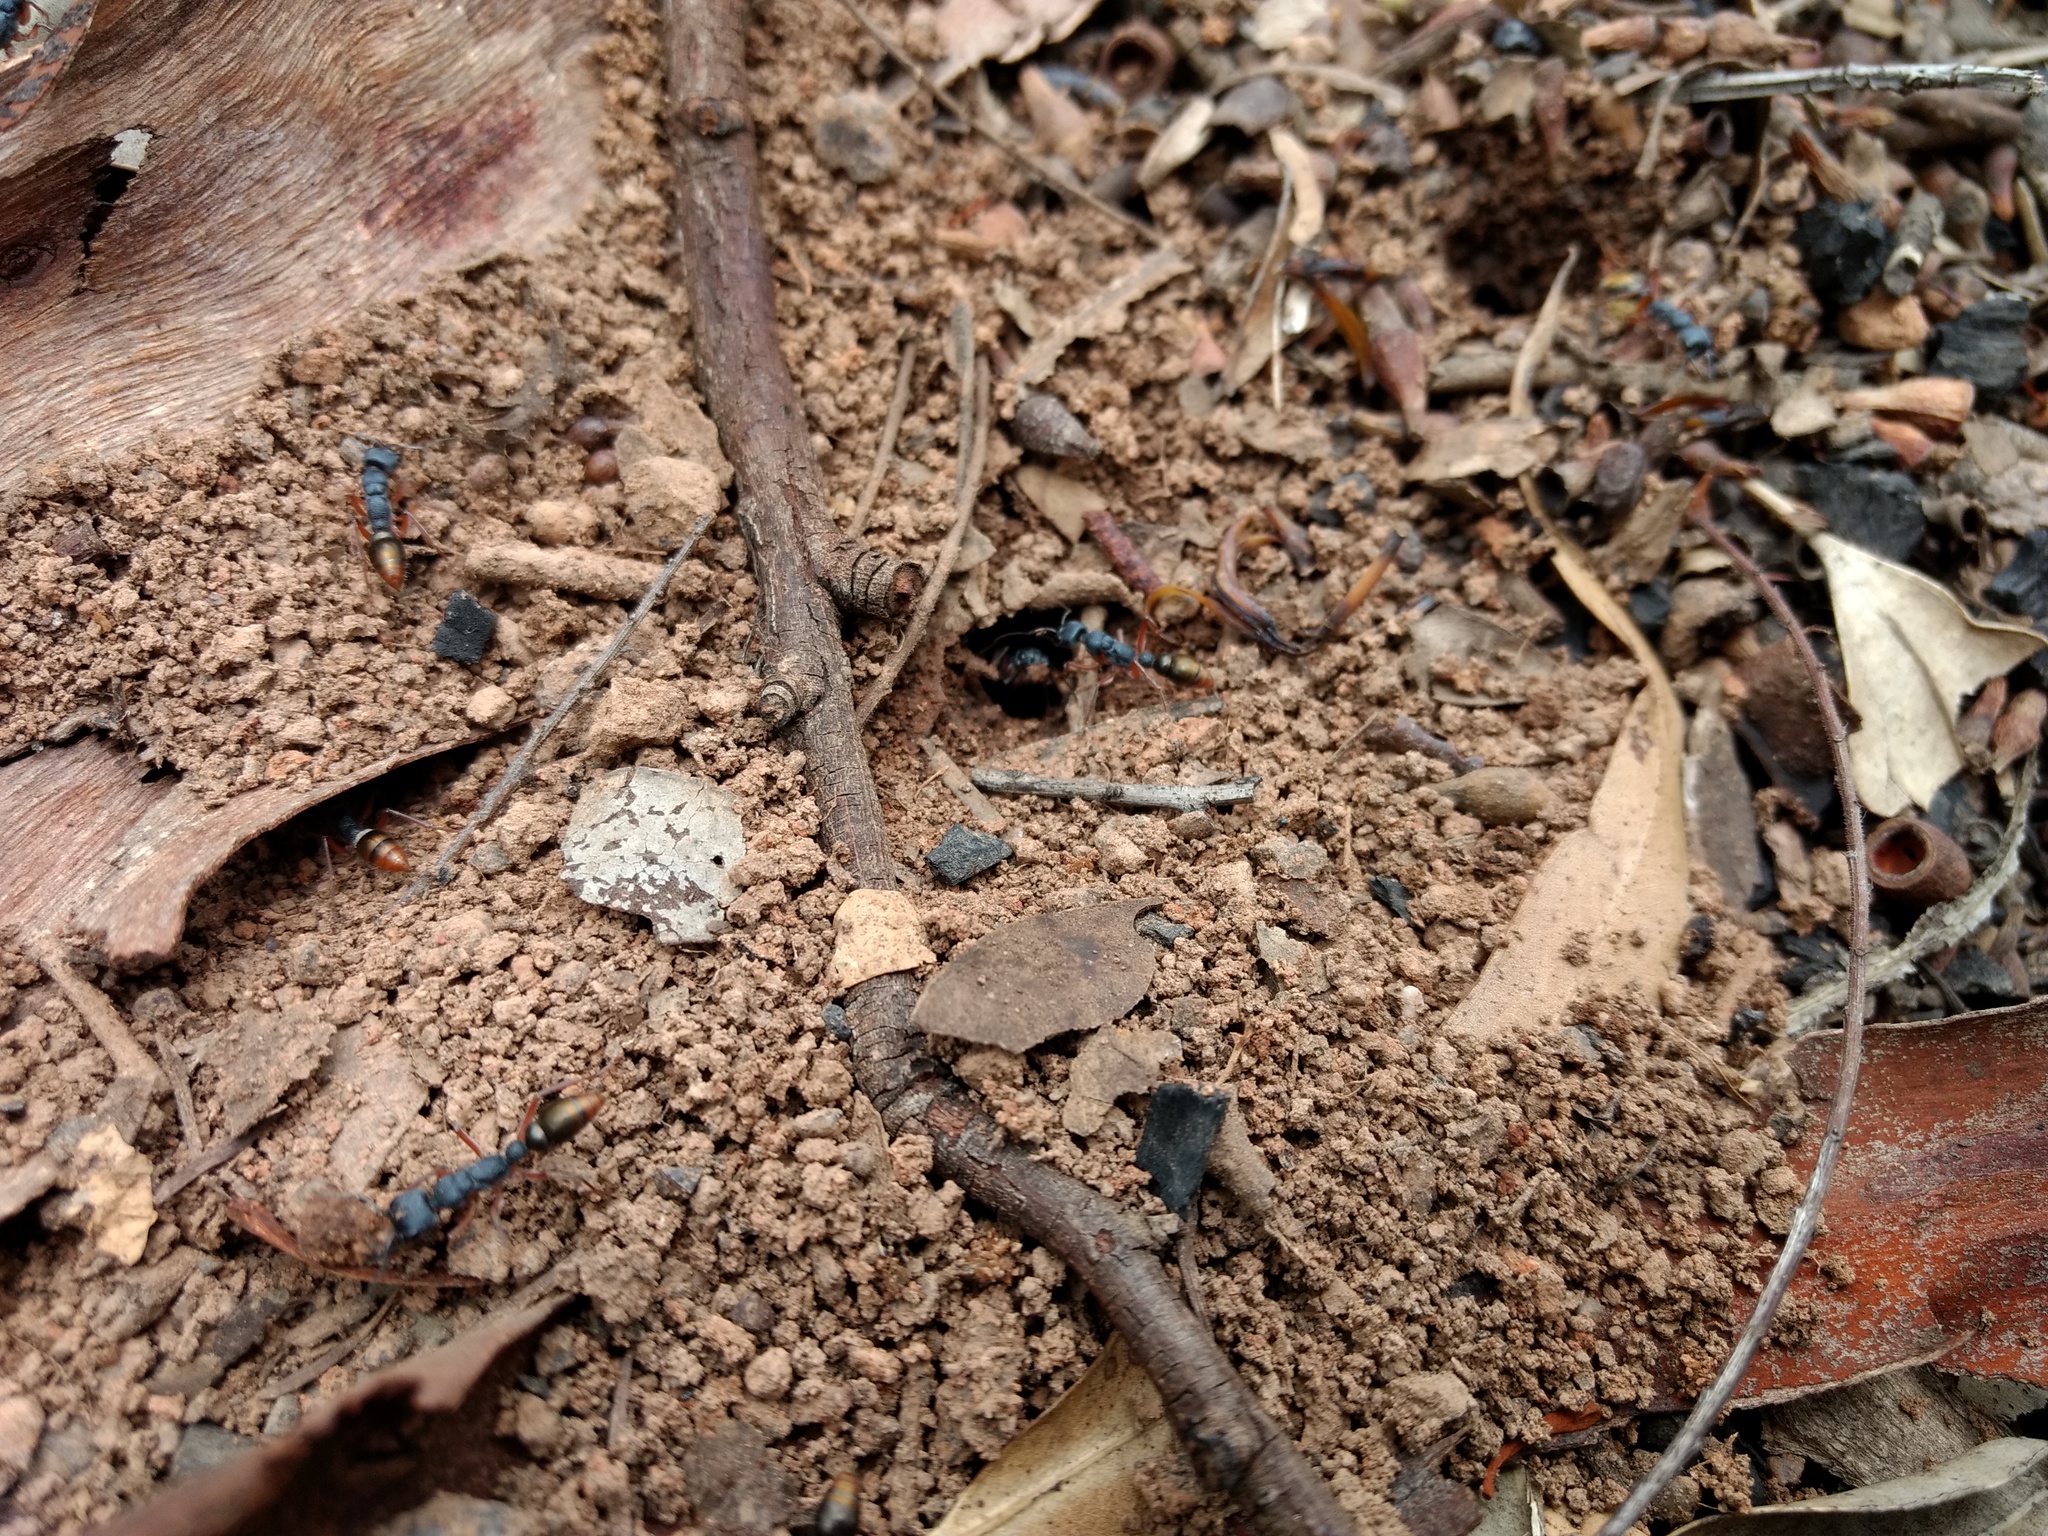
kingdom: Animalia
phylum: Arthropoda
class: Insecta
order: Hymenoptera
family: Formicidae
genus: Myrmecia
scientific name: Myrmecia fulviculis
